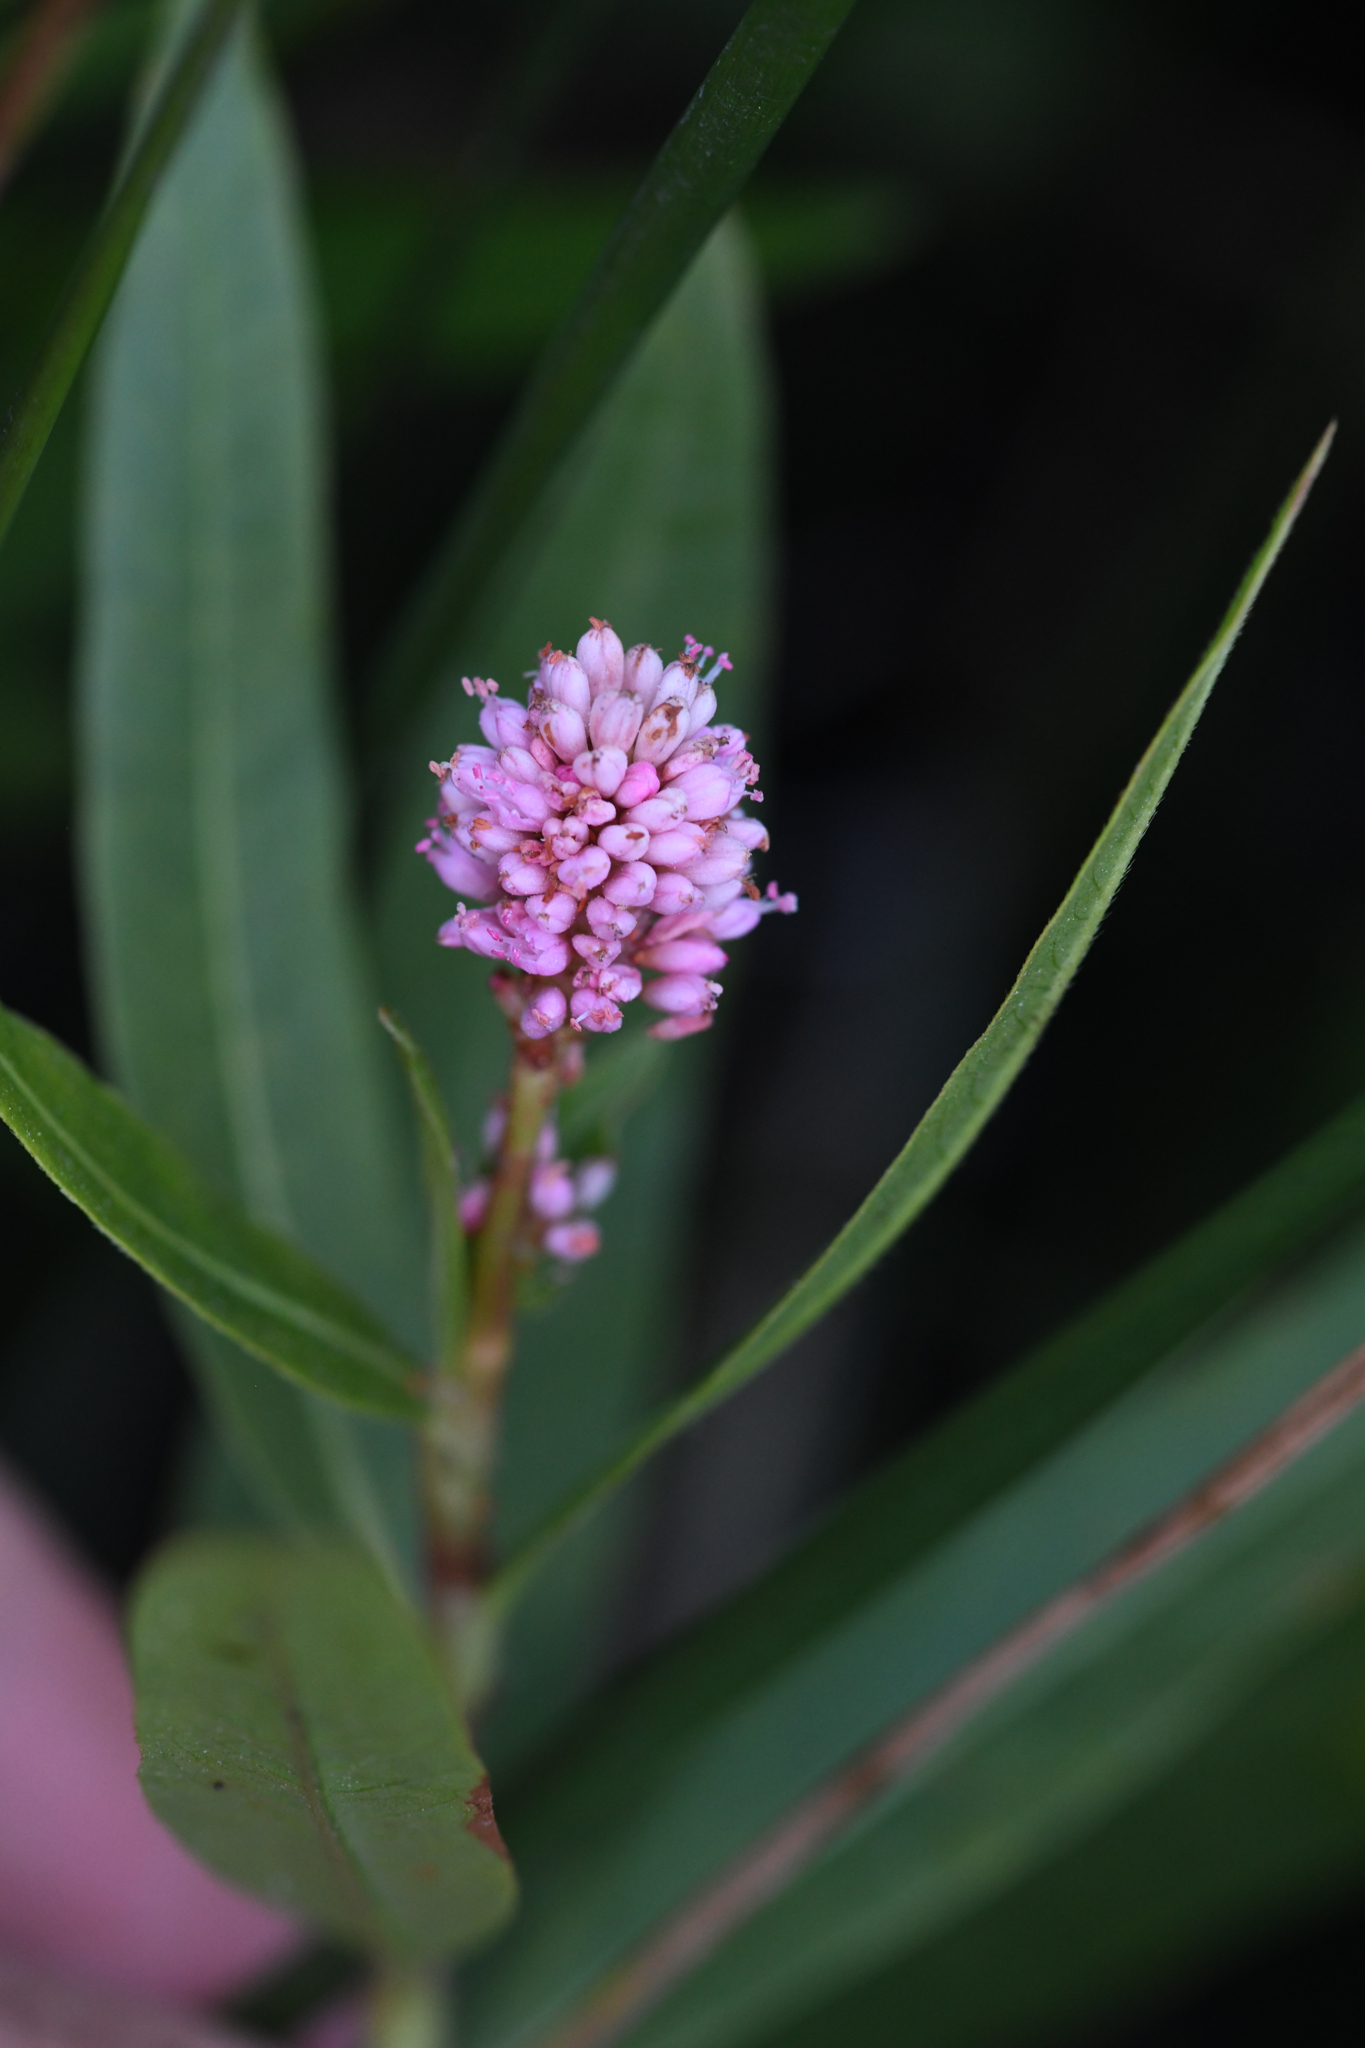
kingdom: Plantae
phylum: Tracheophyta
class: Magnoliopsida
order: Caryophyllales
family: Polygonaceae
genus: Persicaria
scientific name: Persicaria amphibia
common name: Amphibious bistort
